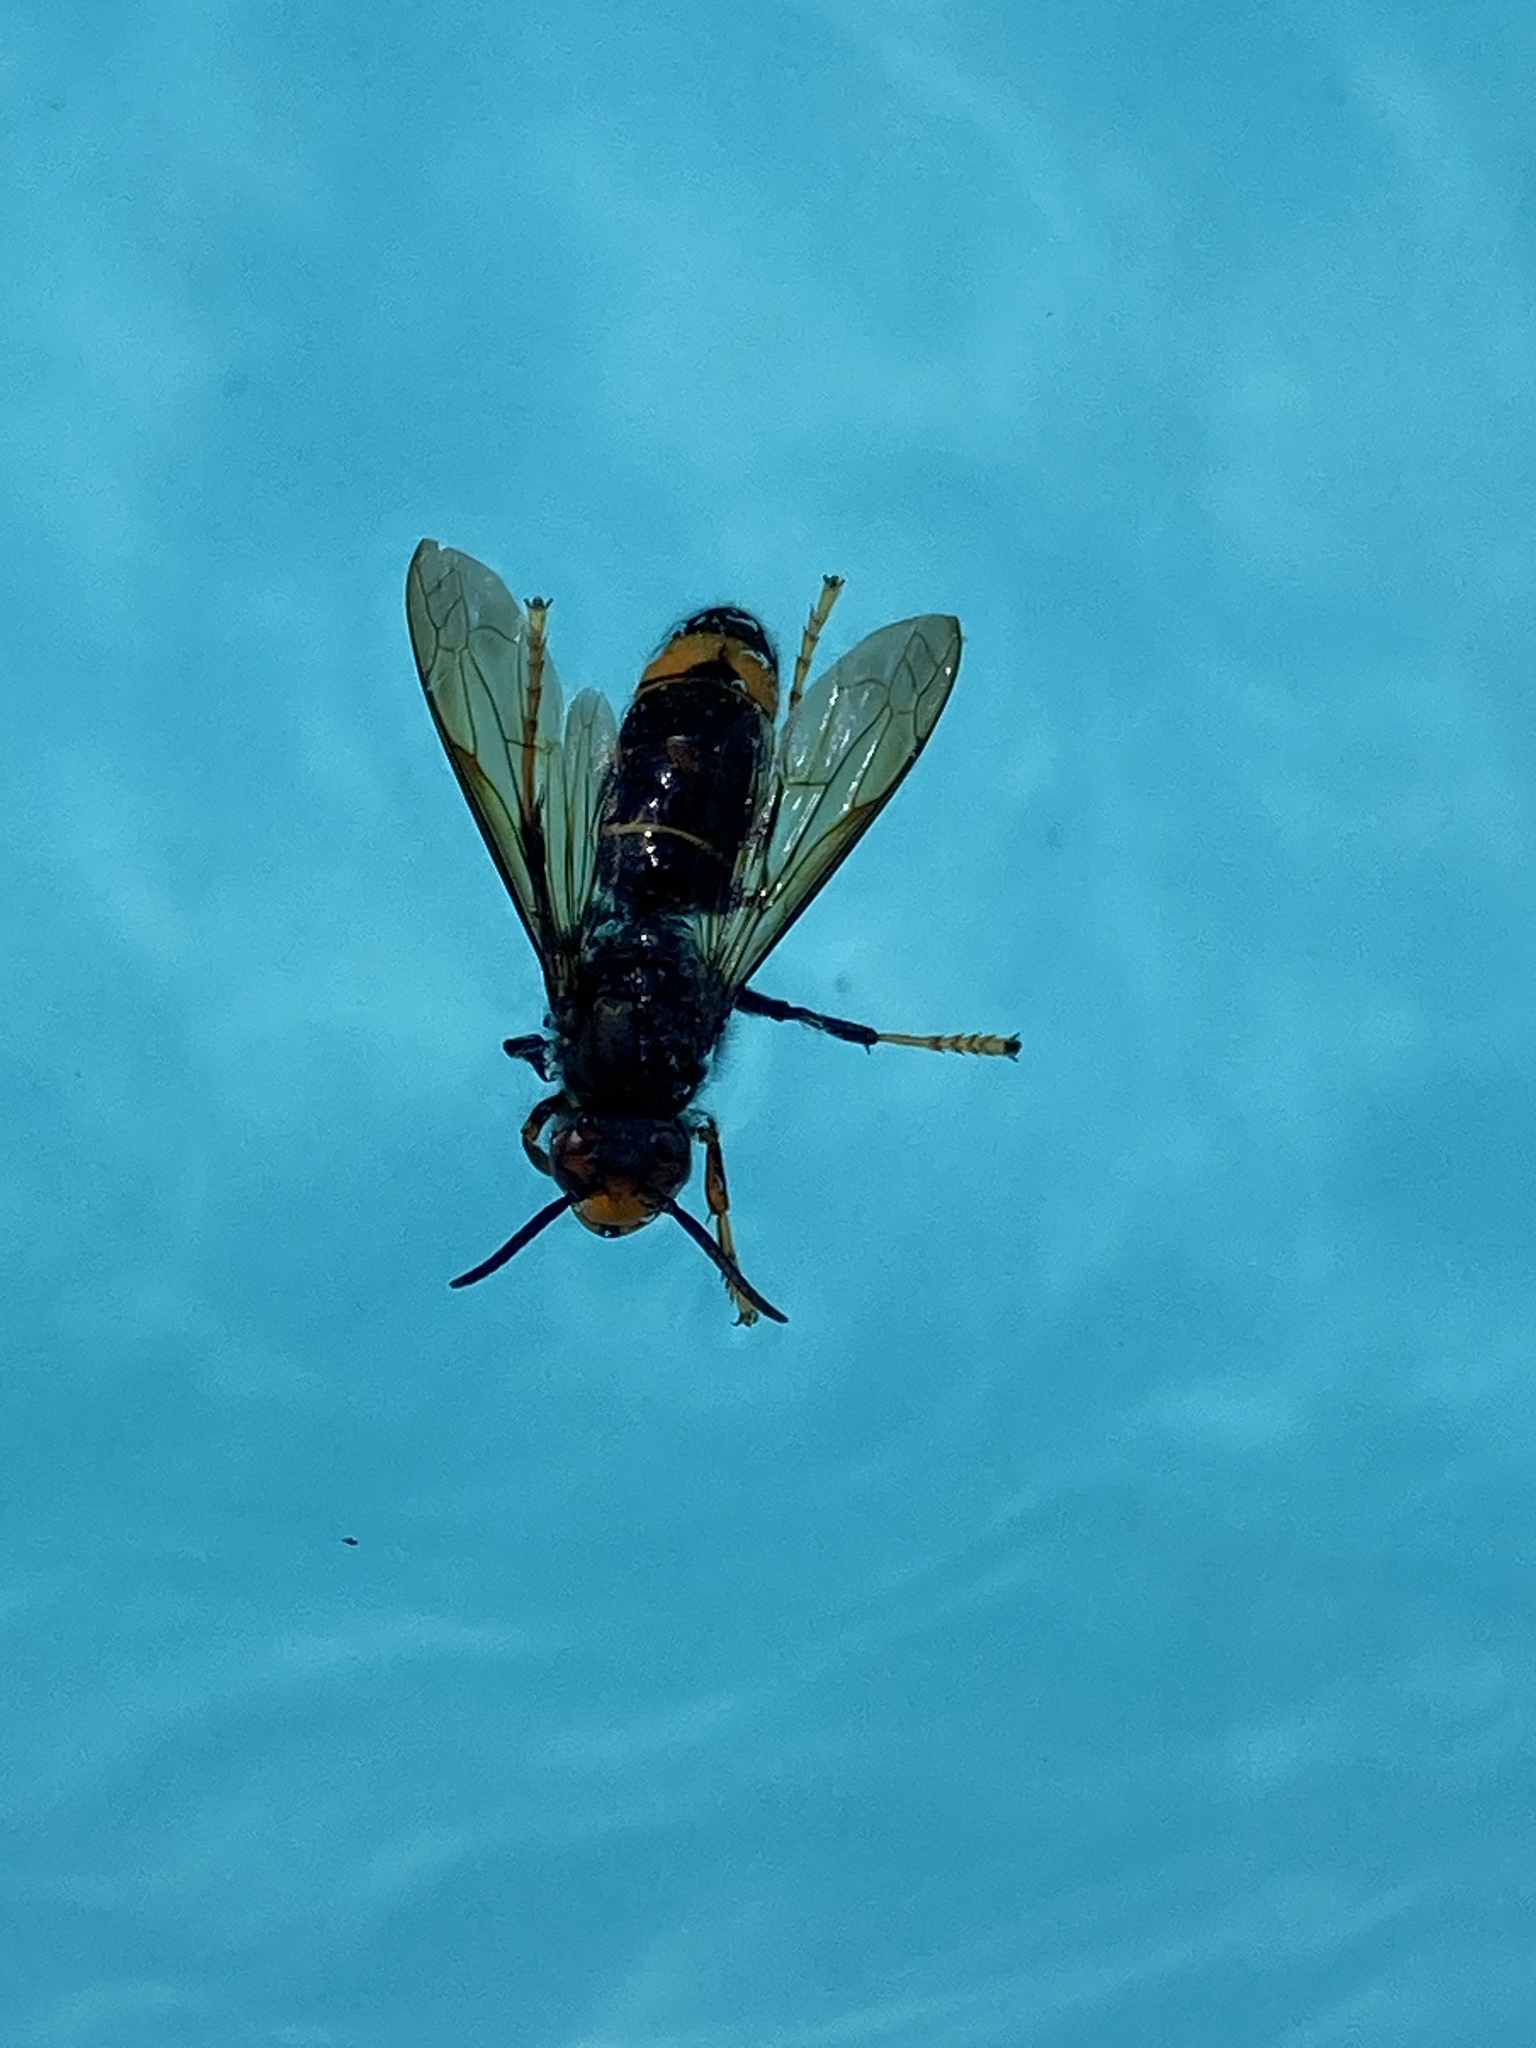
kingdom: Animalia
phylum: Arthropoda
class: Insecta
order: Hymenoptera
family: Vespidae
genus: Vespa
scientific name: Vespa velutina
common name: Asian hornet
